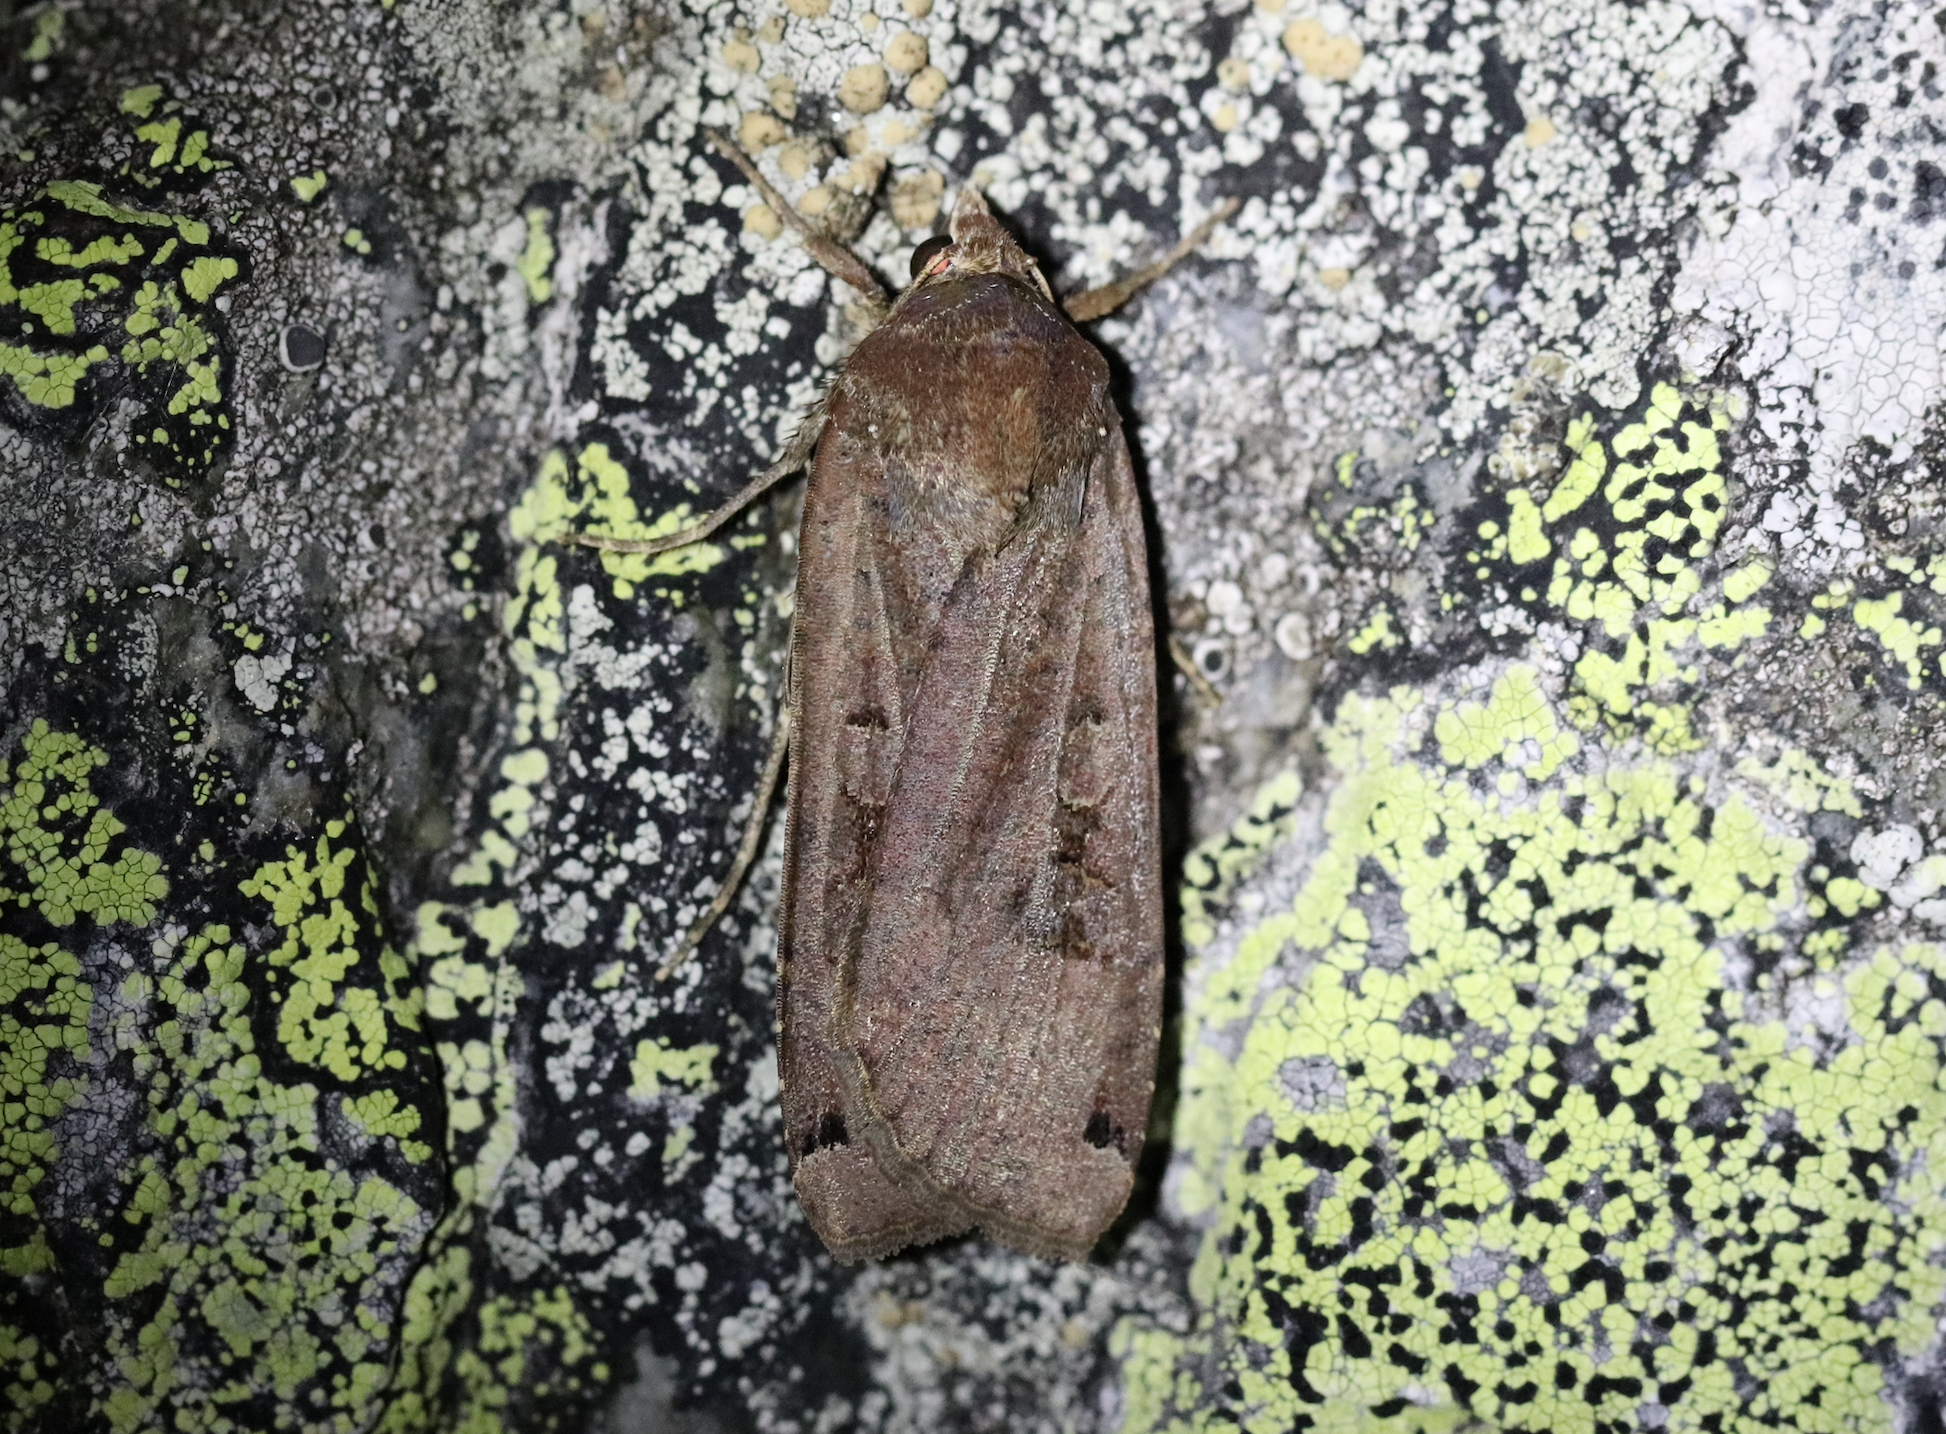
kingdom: Animalia
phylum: Arthropoda
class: Insecta
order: Lepidoptera
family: Noctuidae
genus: Noctua
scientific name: Noctua pronuba
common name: Large yellow underwing
